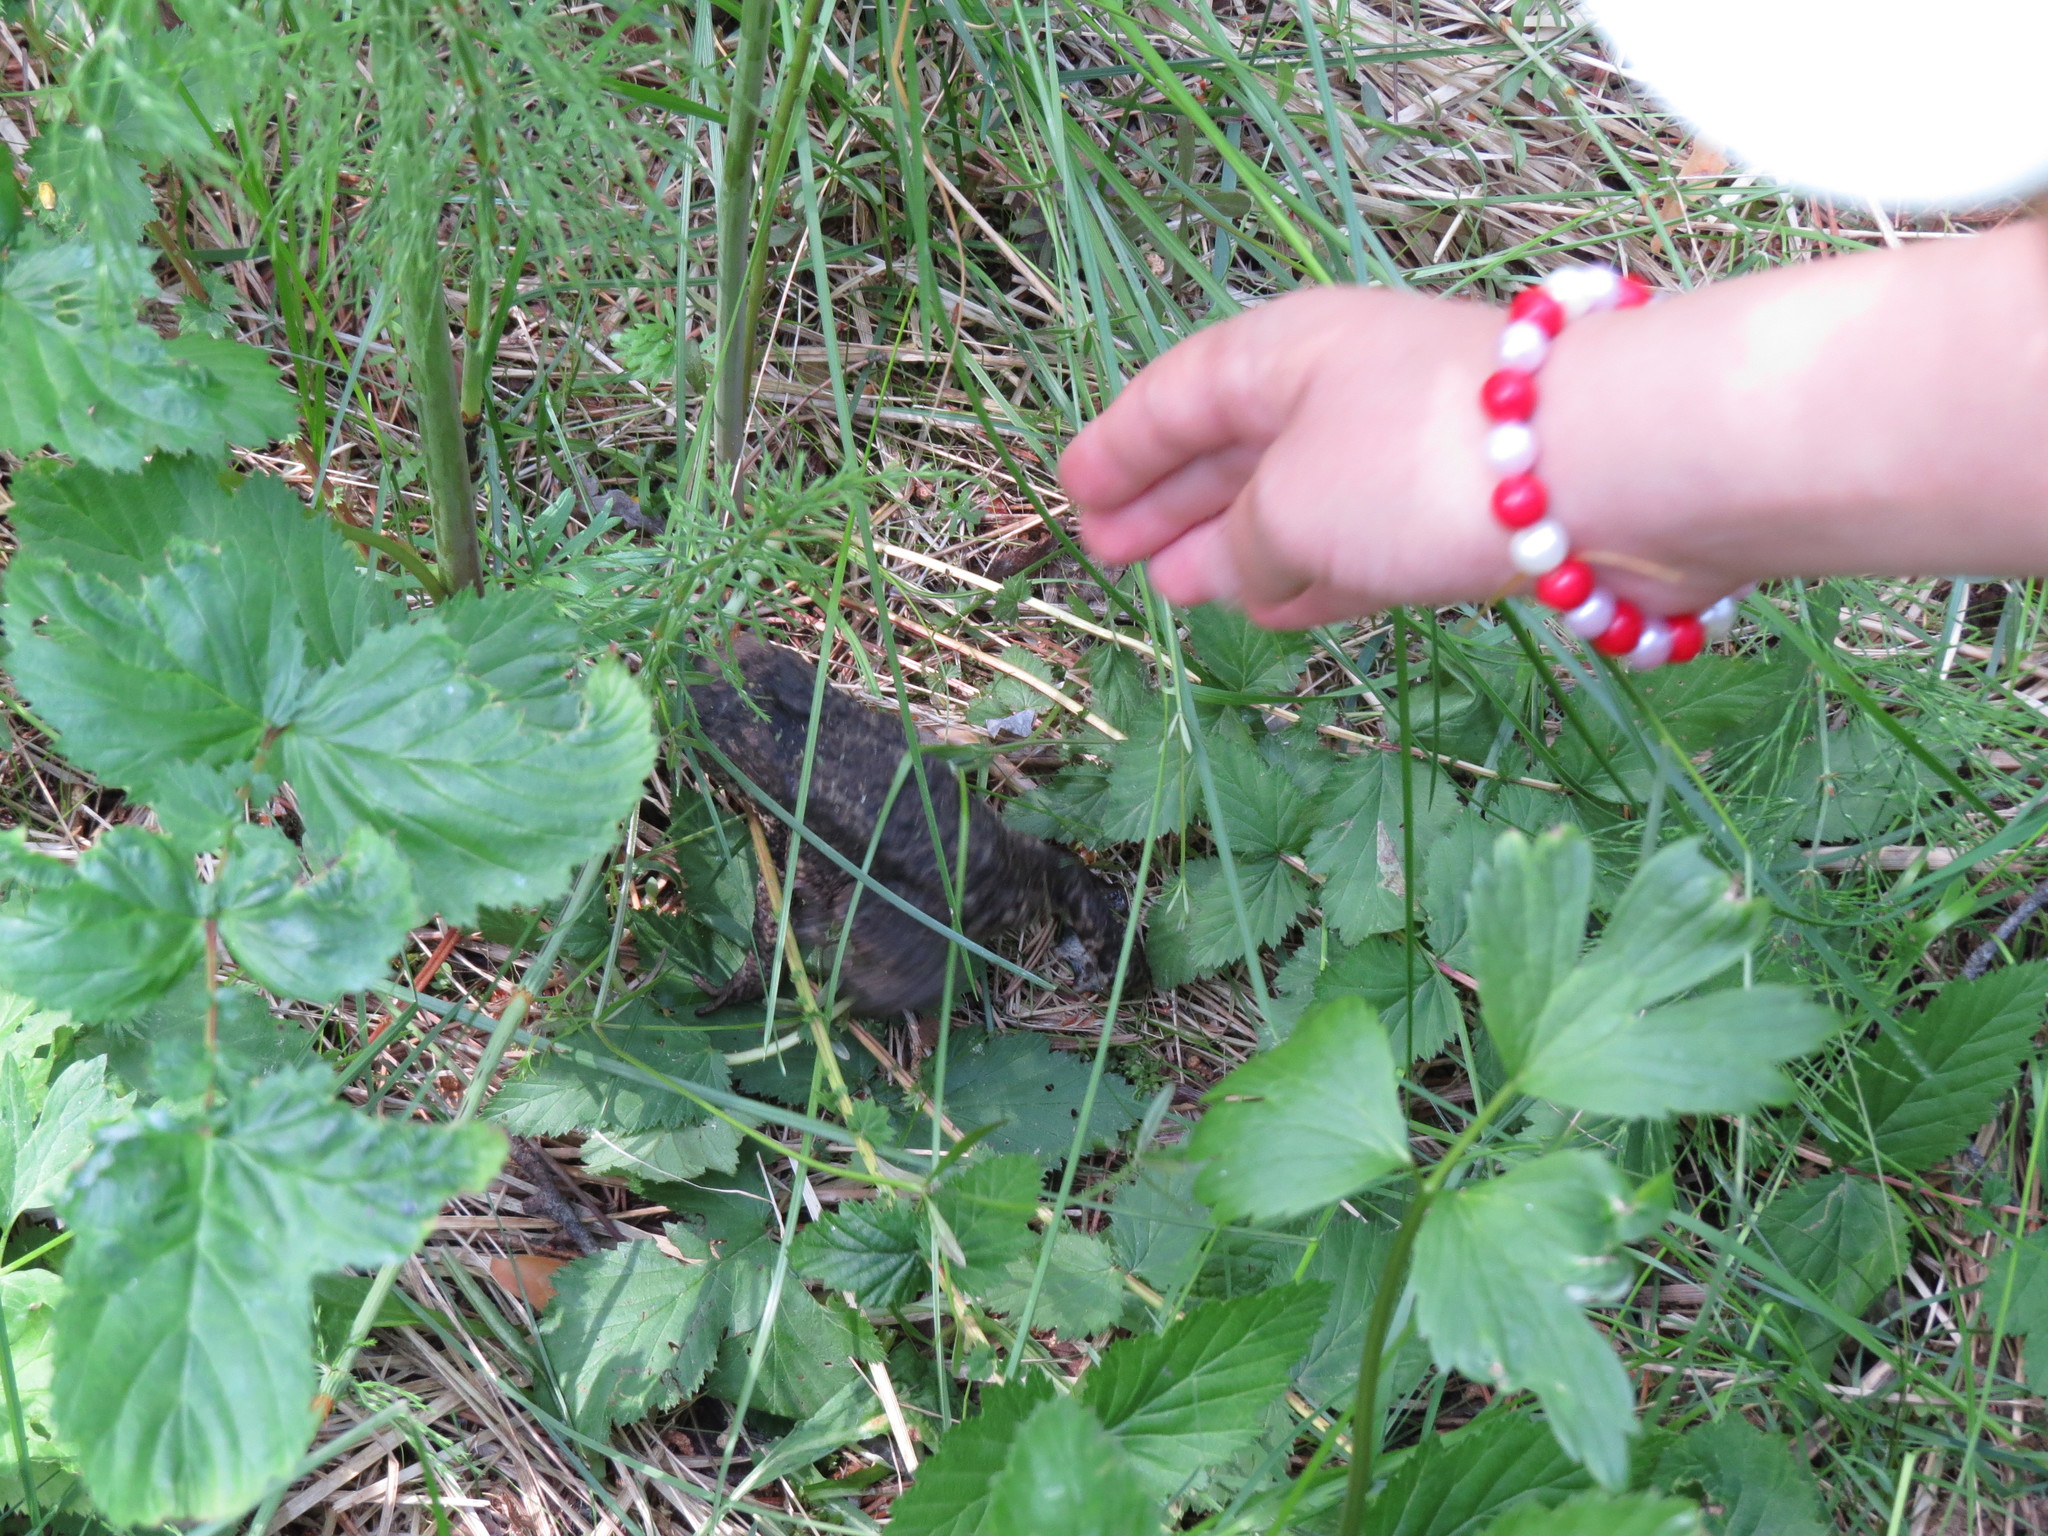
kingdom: Animalia
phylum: Chordata
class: Amphibia
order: Anura
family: Bufonidae
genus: Bufo
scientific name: Bufo bufo
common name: Common toad
